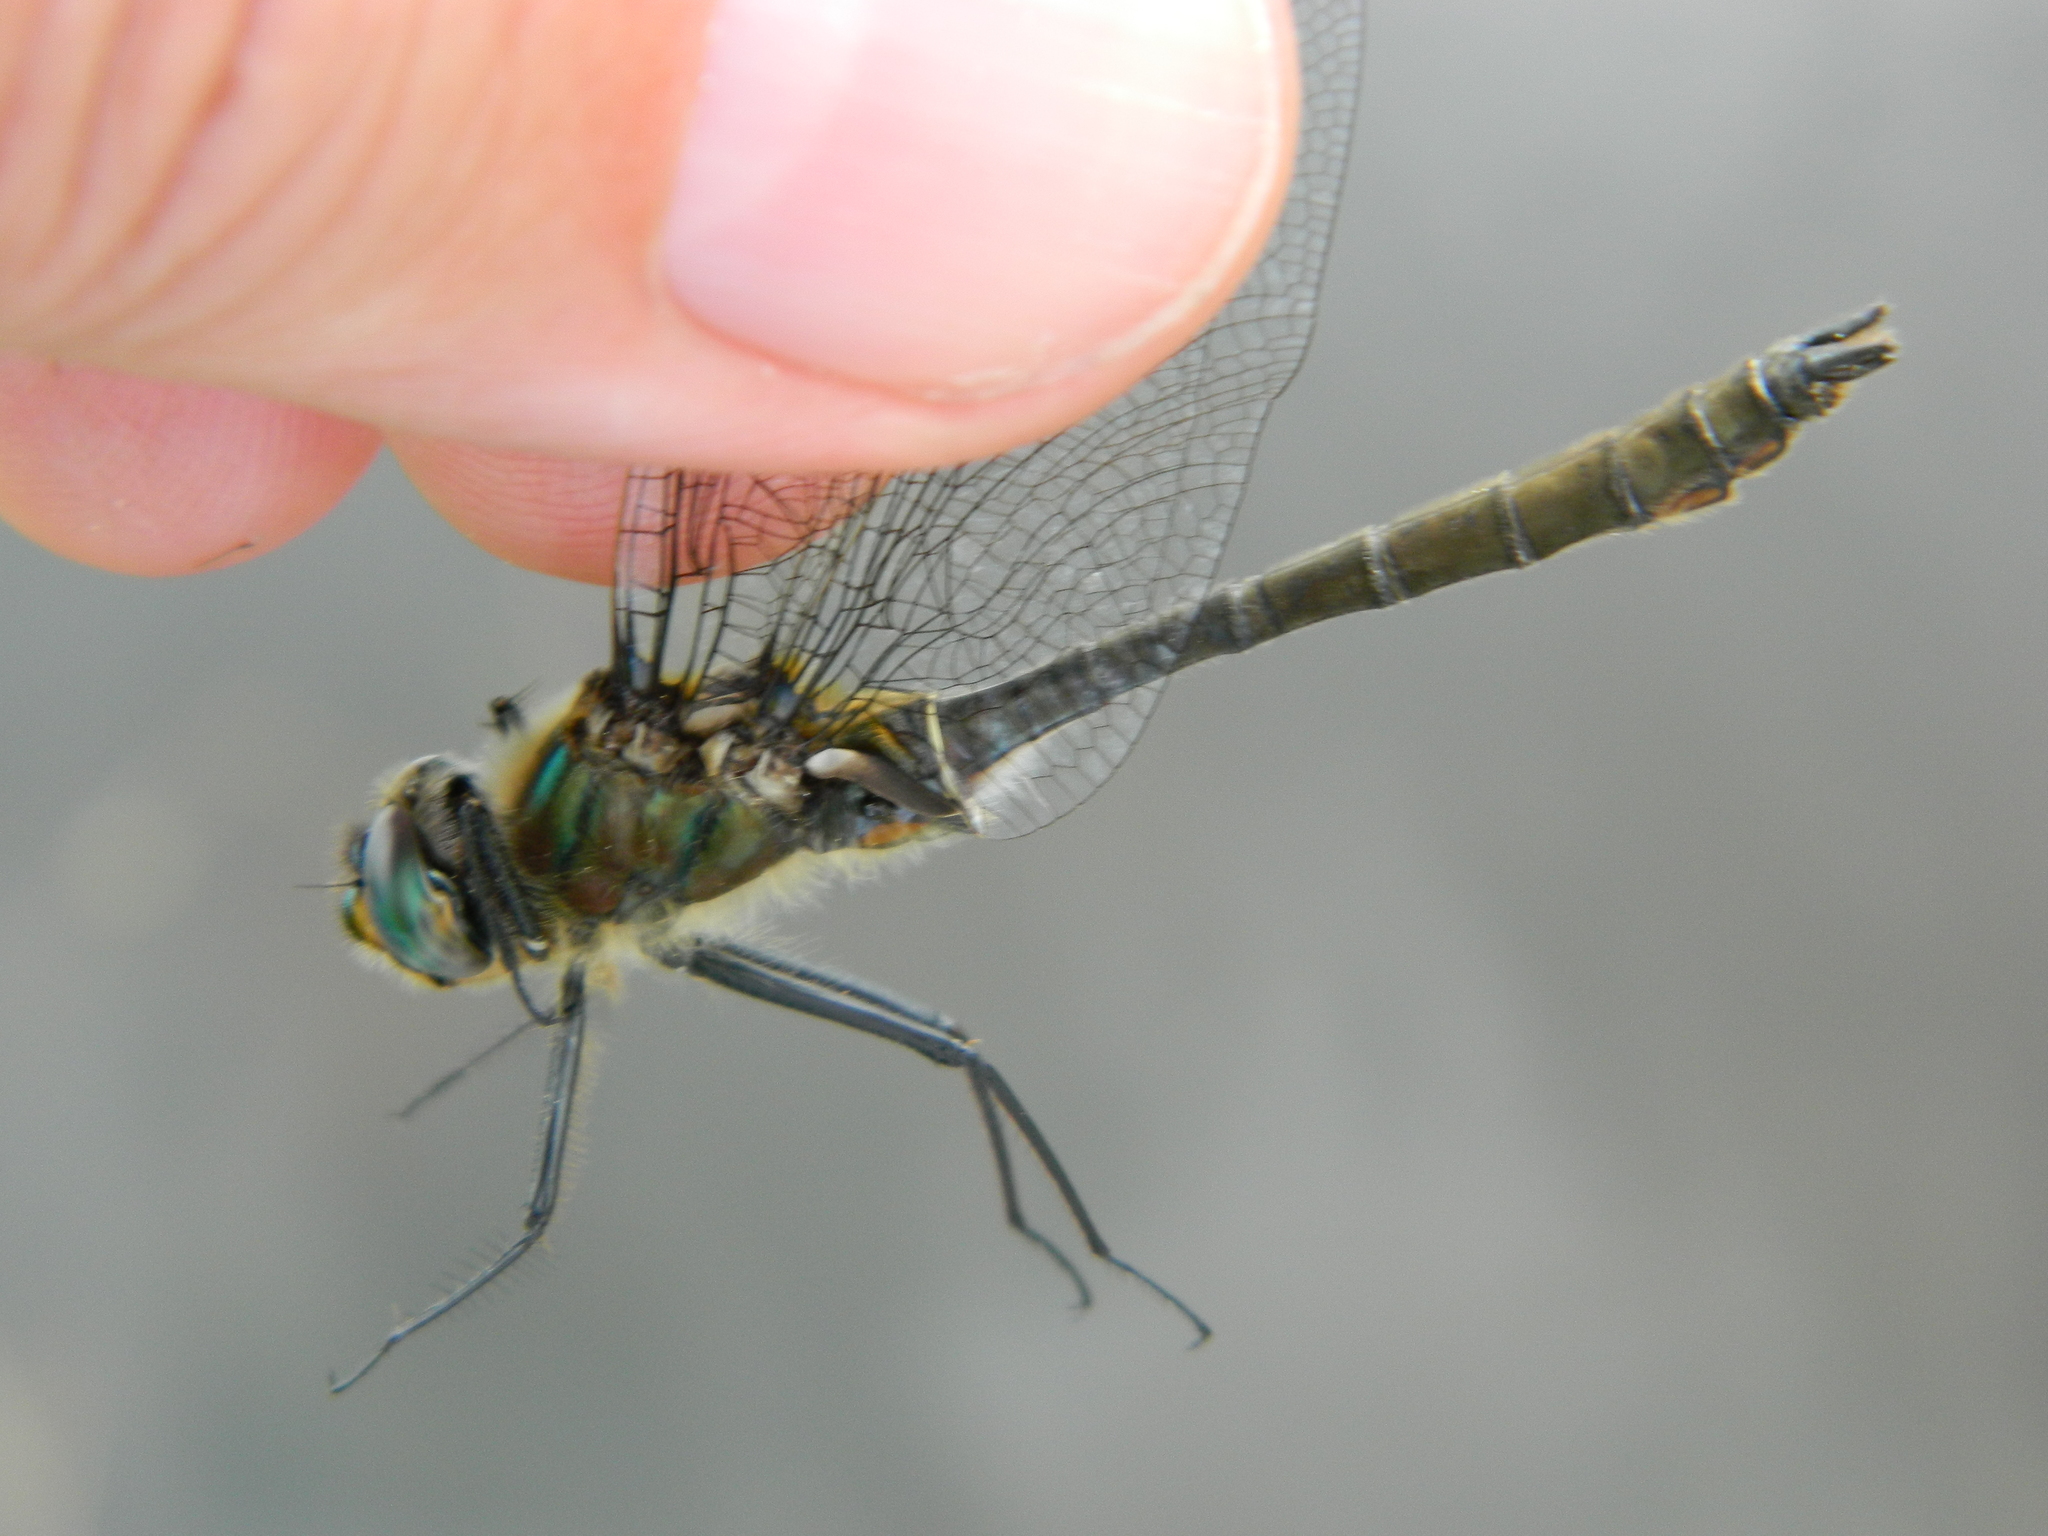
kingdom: Animalia
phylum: Arthropoda
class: Insecta
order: Odonata
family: Corduliidae
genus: Cordulia
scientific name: Cordulia shurtleffii
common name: American emerald
